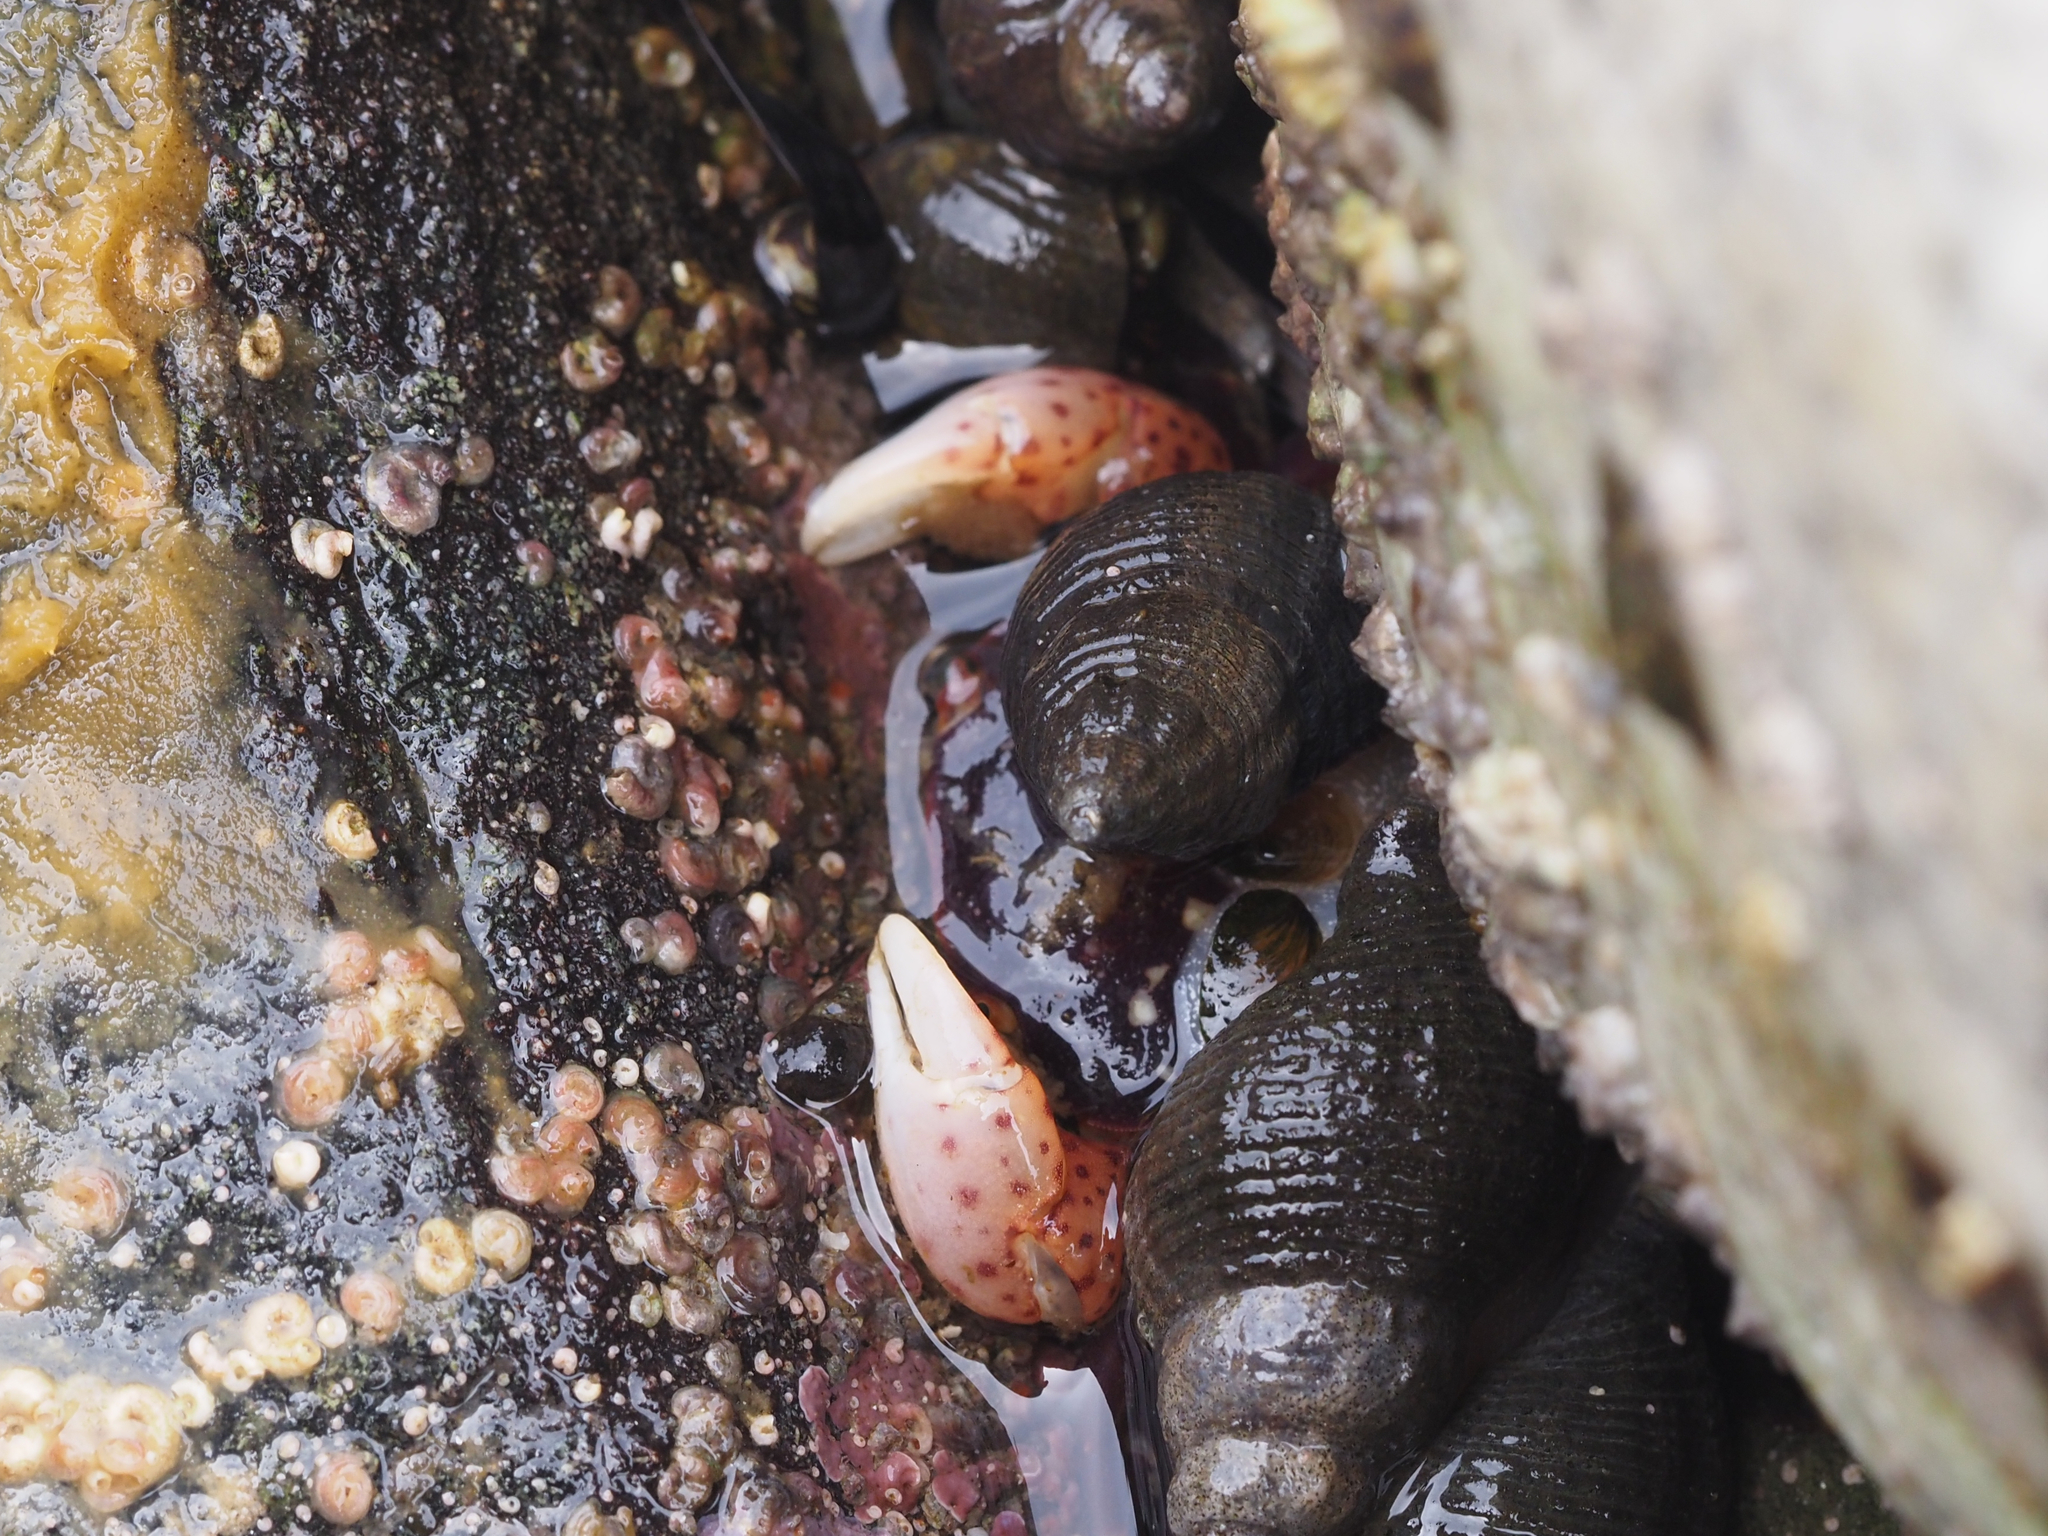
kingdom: Animalia
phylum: Arthropoda
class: Malacostraca
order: Decapoda
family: Varunidae
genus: Hemigrapsus
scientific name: Hemigrapsus nudus
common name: Purple shore crab
